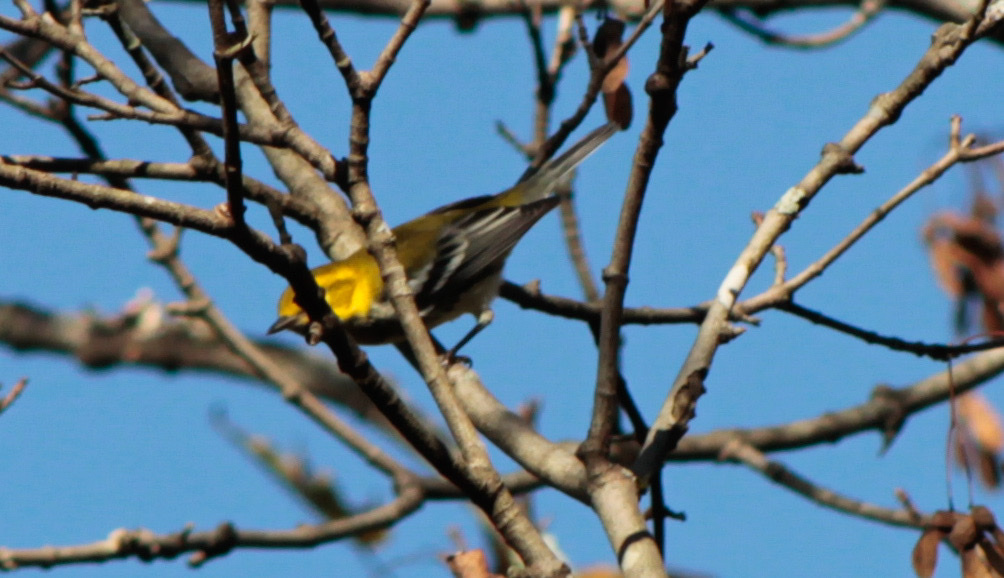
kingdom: Animalia
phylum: Chordata
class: Aves
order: Passeriformes
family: Parulidae
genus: Setophaga
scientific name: Setophaga virens
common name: Black-throated green warbler
